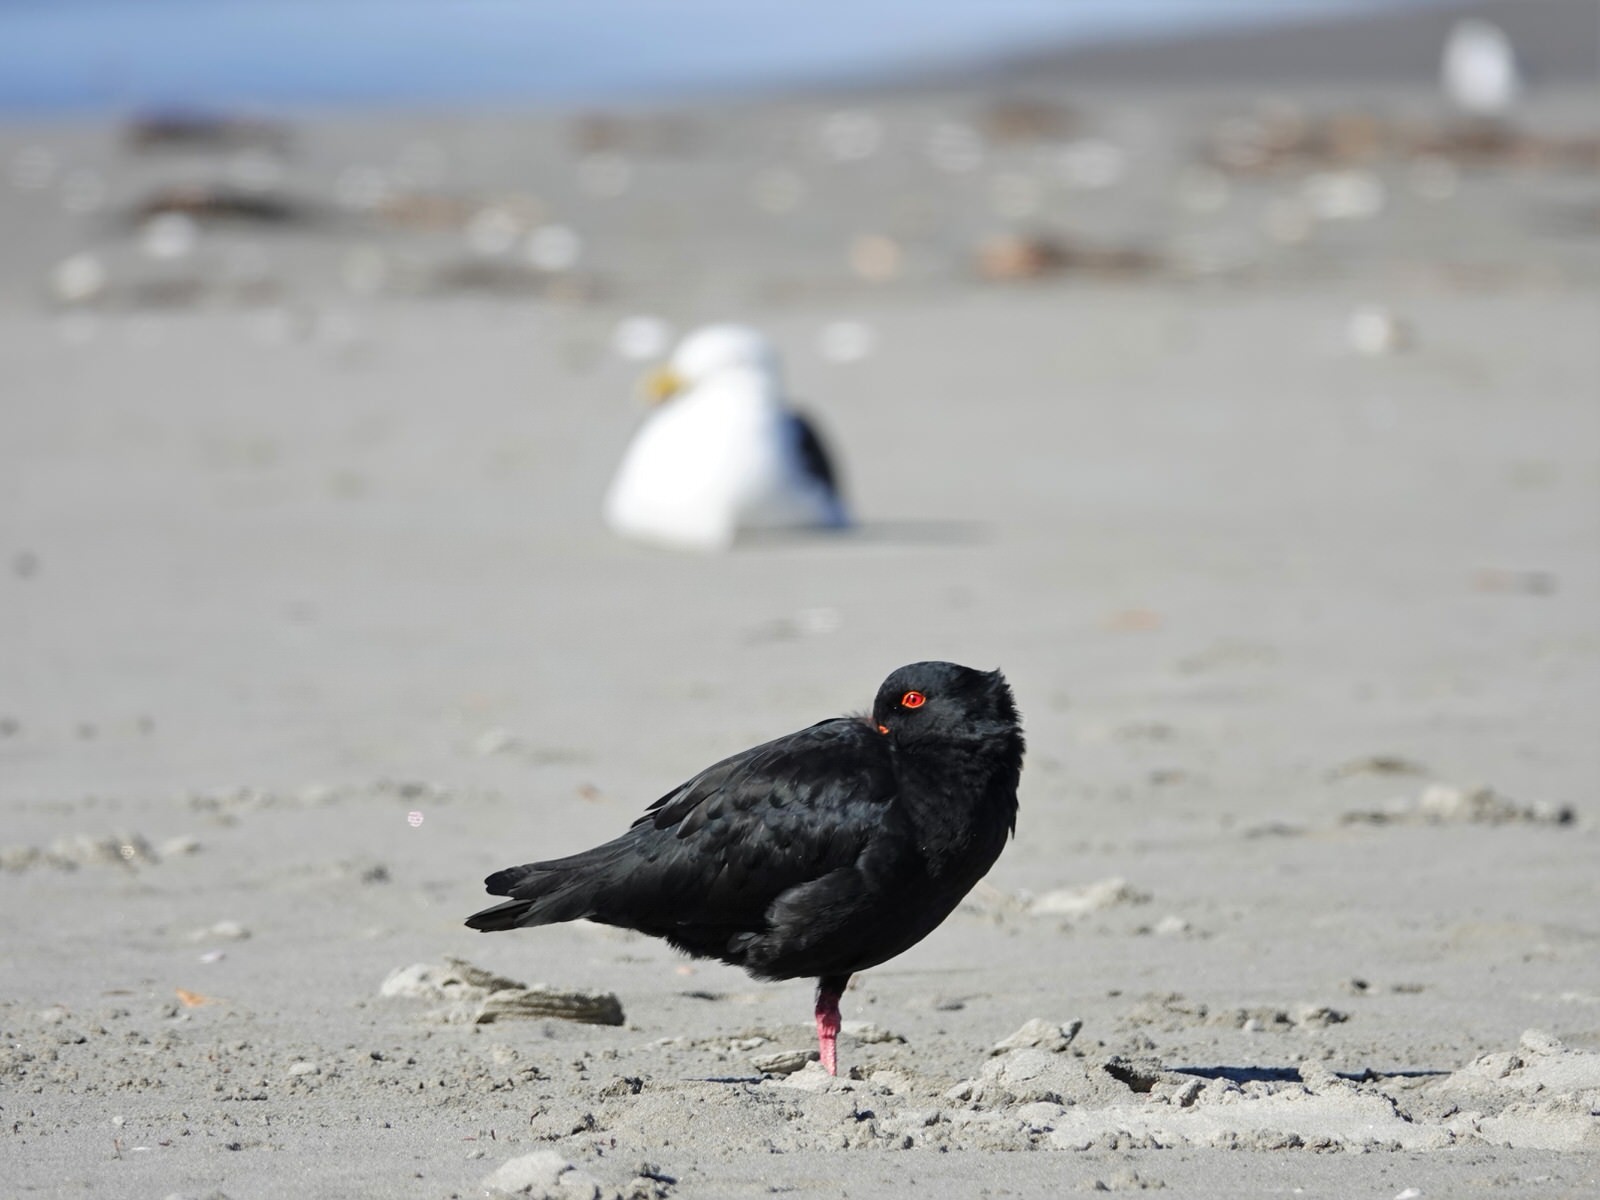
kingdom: Animalia
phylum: Chordata
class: Aves
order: Charadriiformes
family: Haematopodidae
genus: Haematopus
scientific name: Haematopus unicolor
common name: Variable oystercatcher
